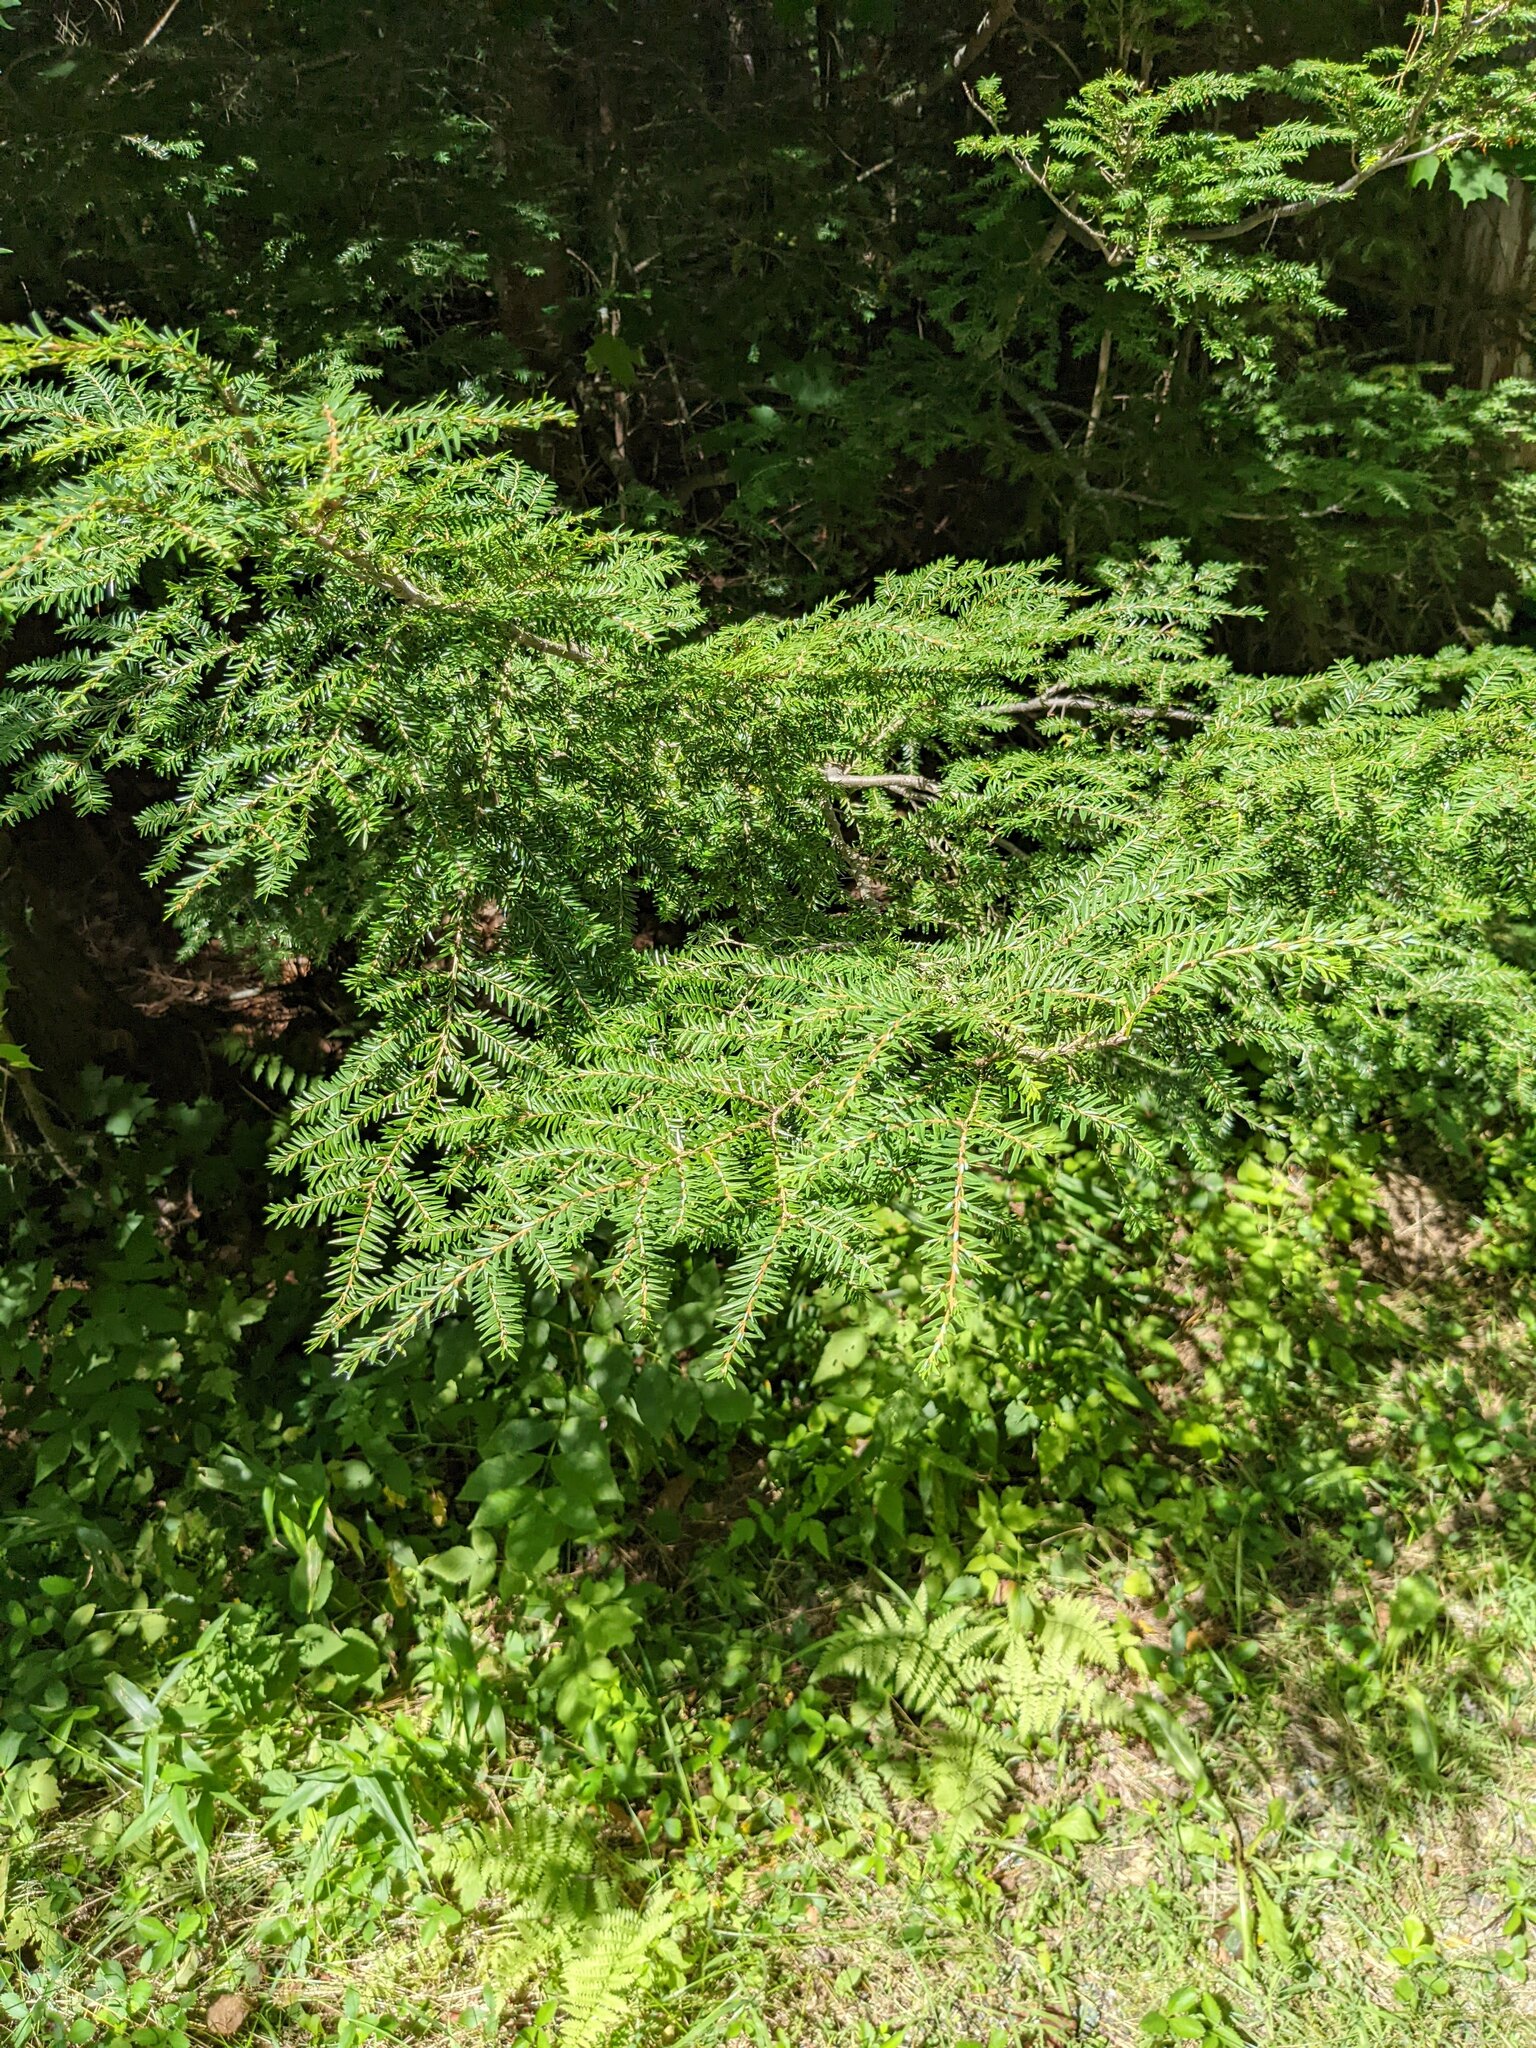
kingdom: Plantae
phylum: Tracheophyta
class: Pinopsida
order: Pinales
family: Pinaceae
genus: Tsuga
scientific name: Tsuga canadensis
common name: Eastern hemlock
